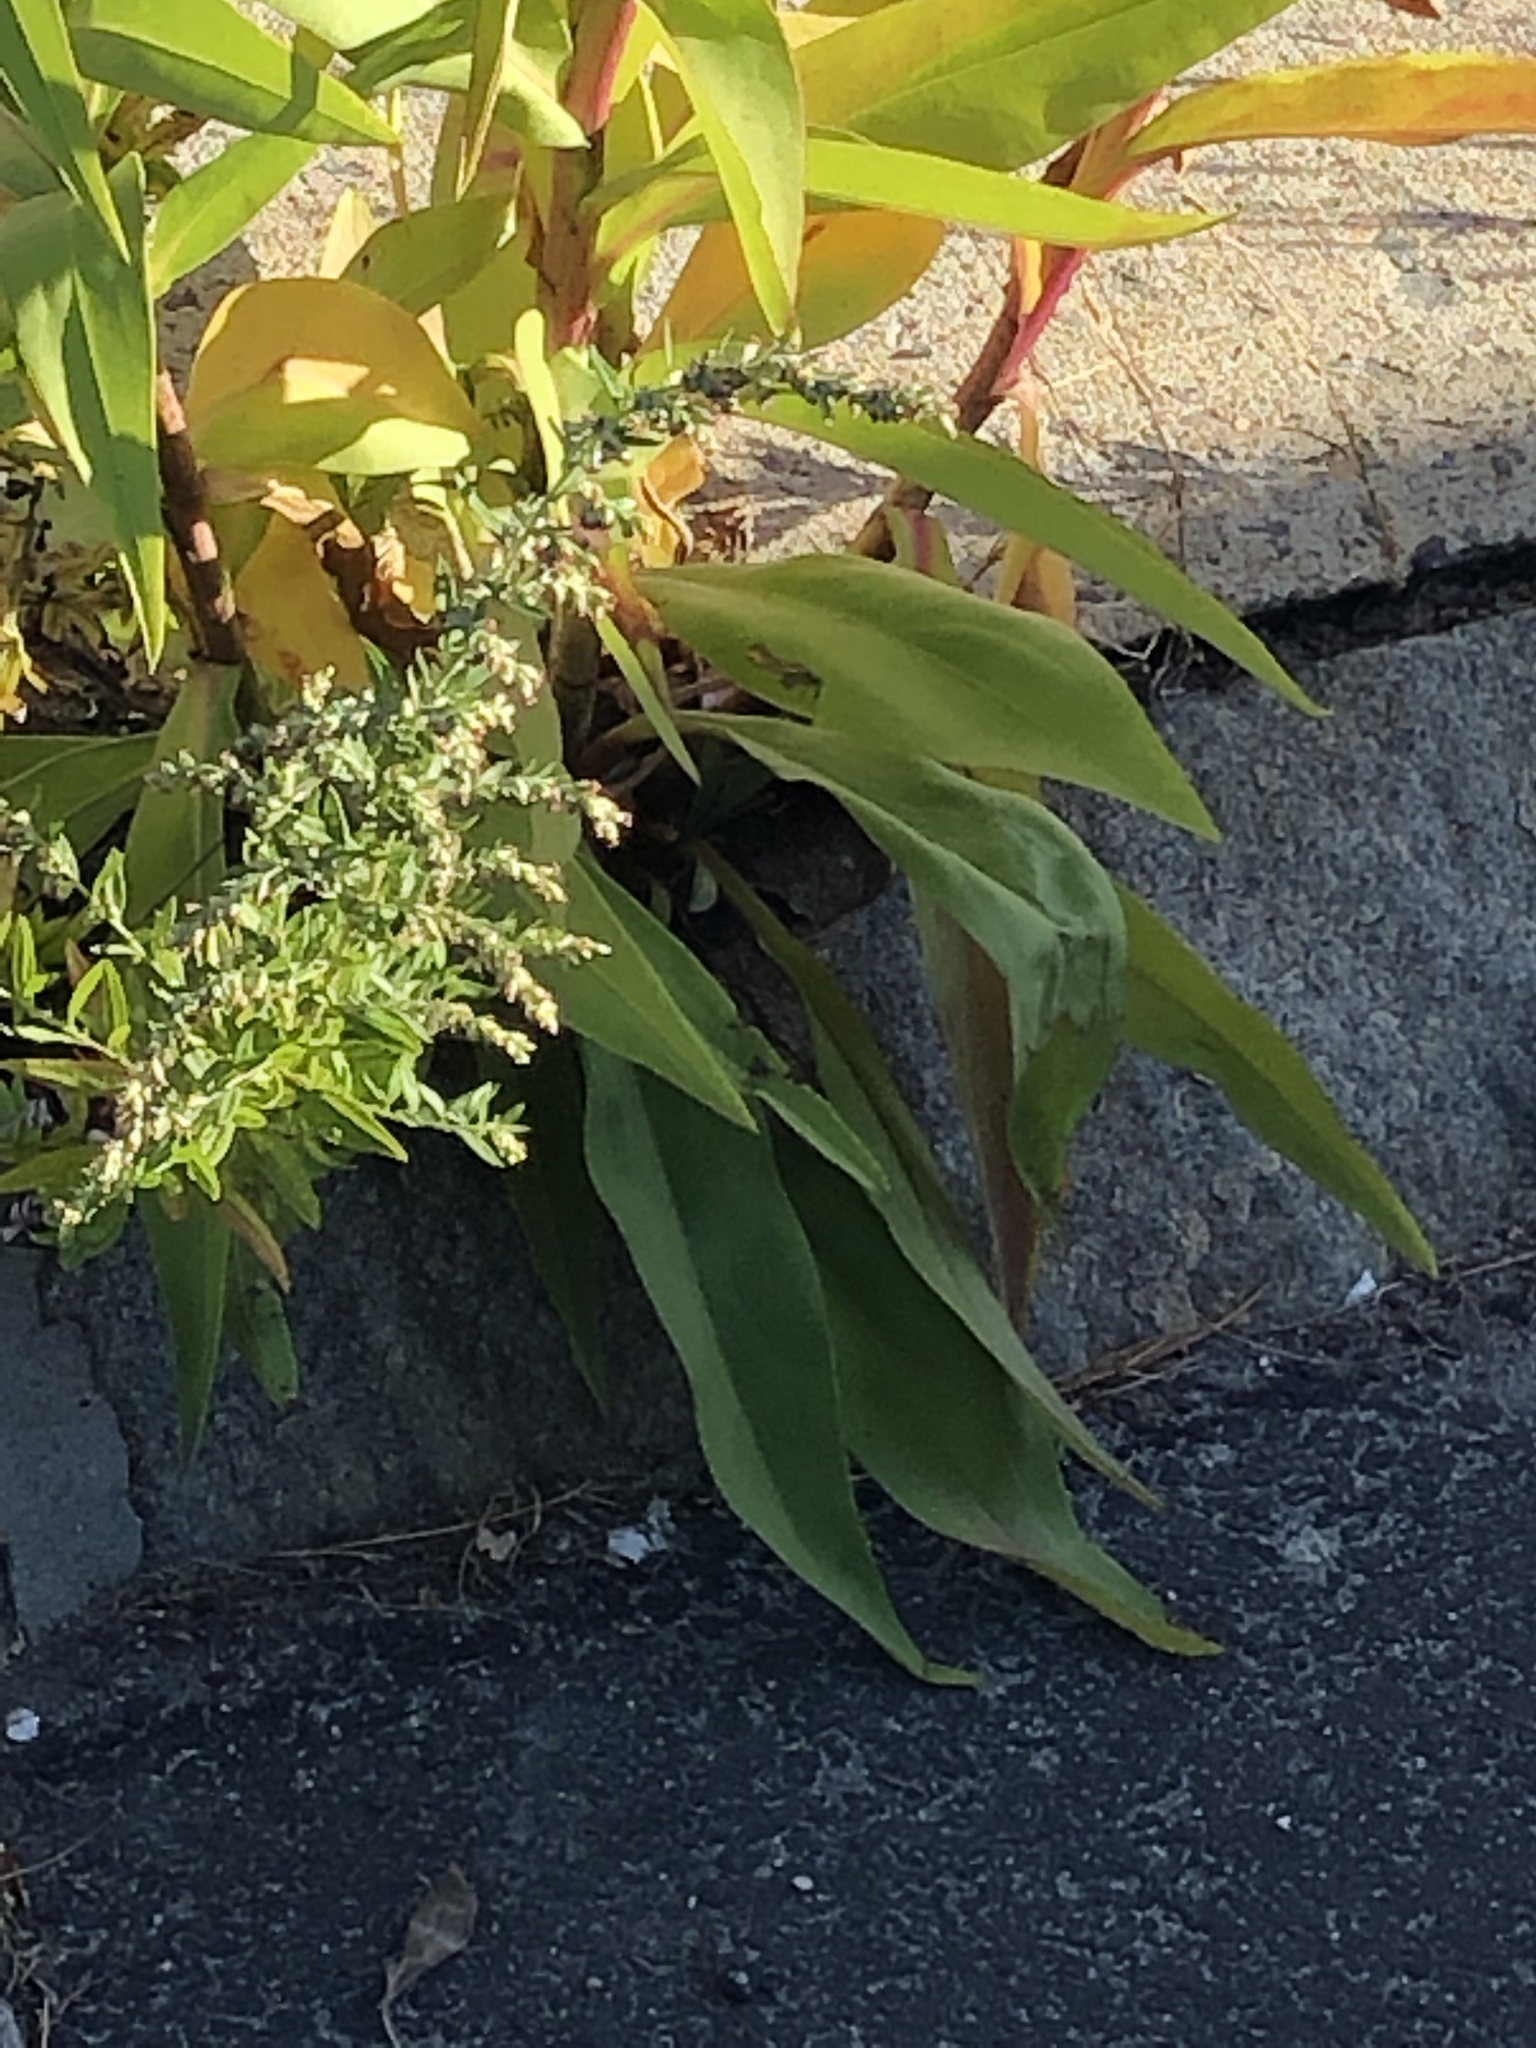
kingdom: Plantae
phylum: Tracheophyta
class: Magnoliopsida
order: Asterales
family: Asteraceae
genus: Solidago
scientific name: Solidago sempervirens
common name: Salt-marsh goldenrod
